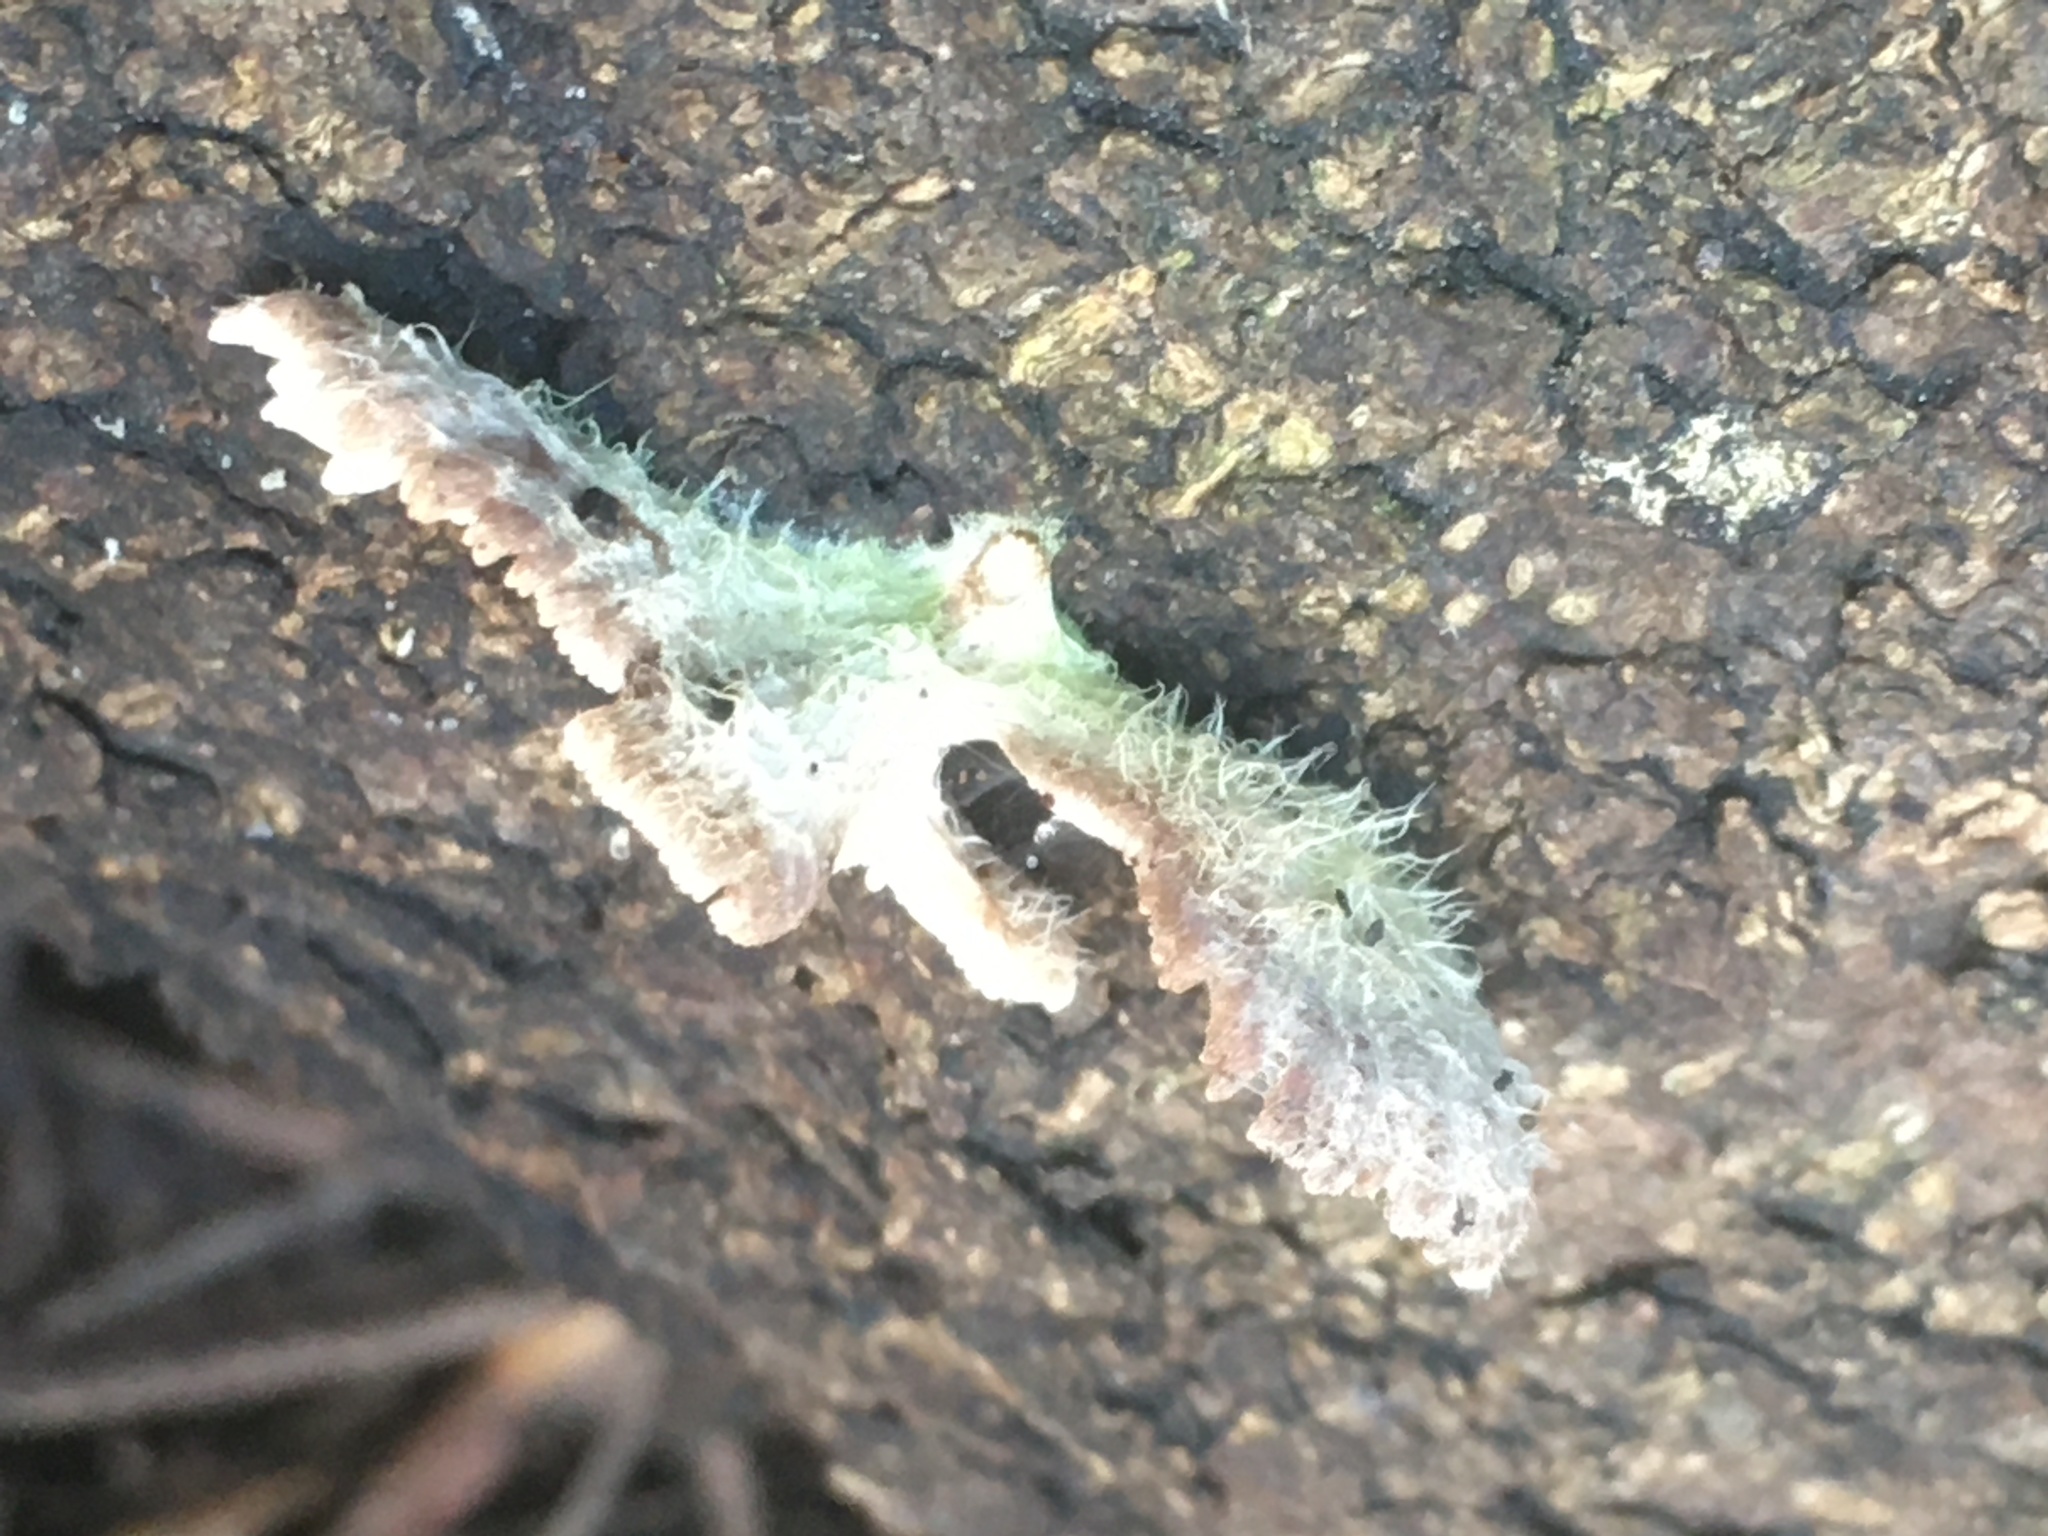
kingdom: Fungi
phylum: Basidiomycota
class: Agaricomycetes
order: Agaricales
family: Schizophyllaceae
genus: Schizophyllum
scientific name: Schizophyllum commune
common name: Common porecrust
